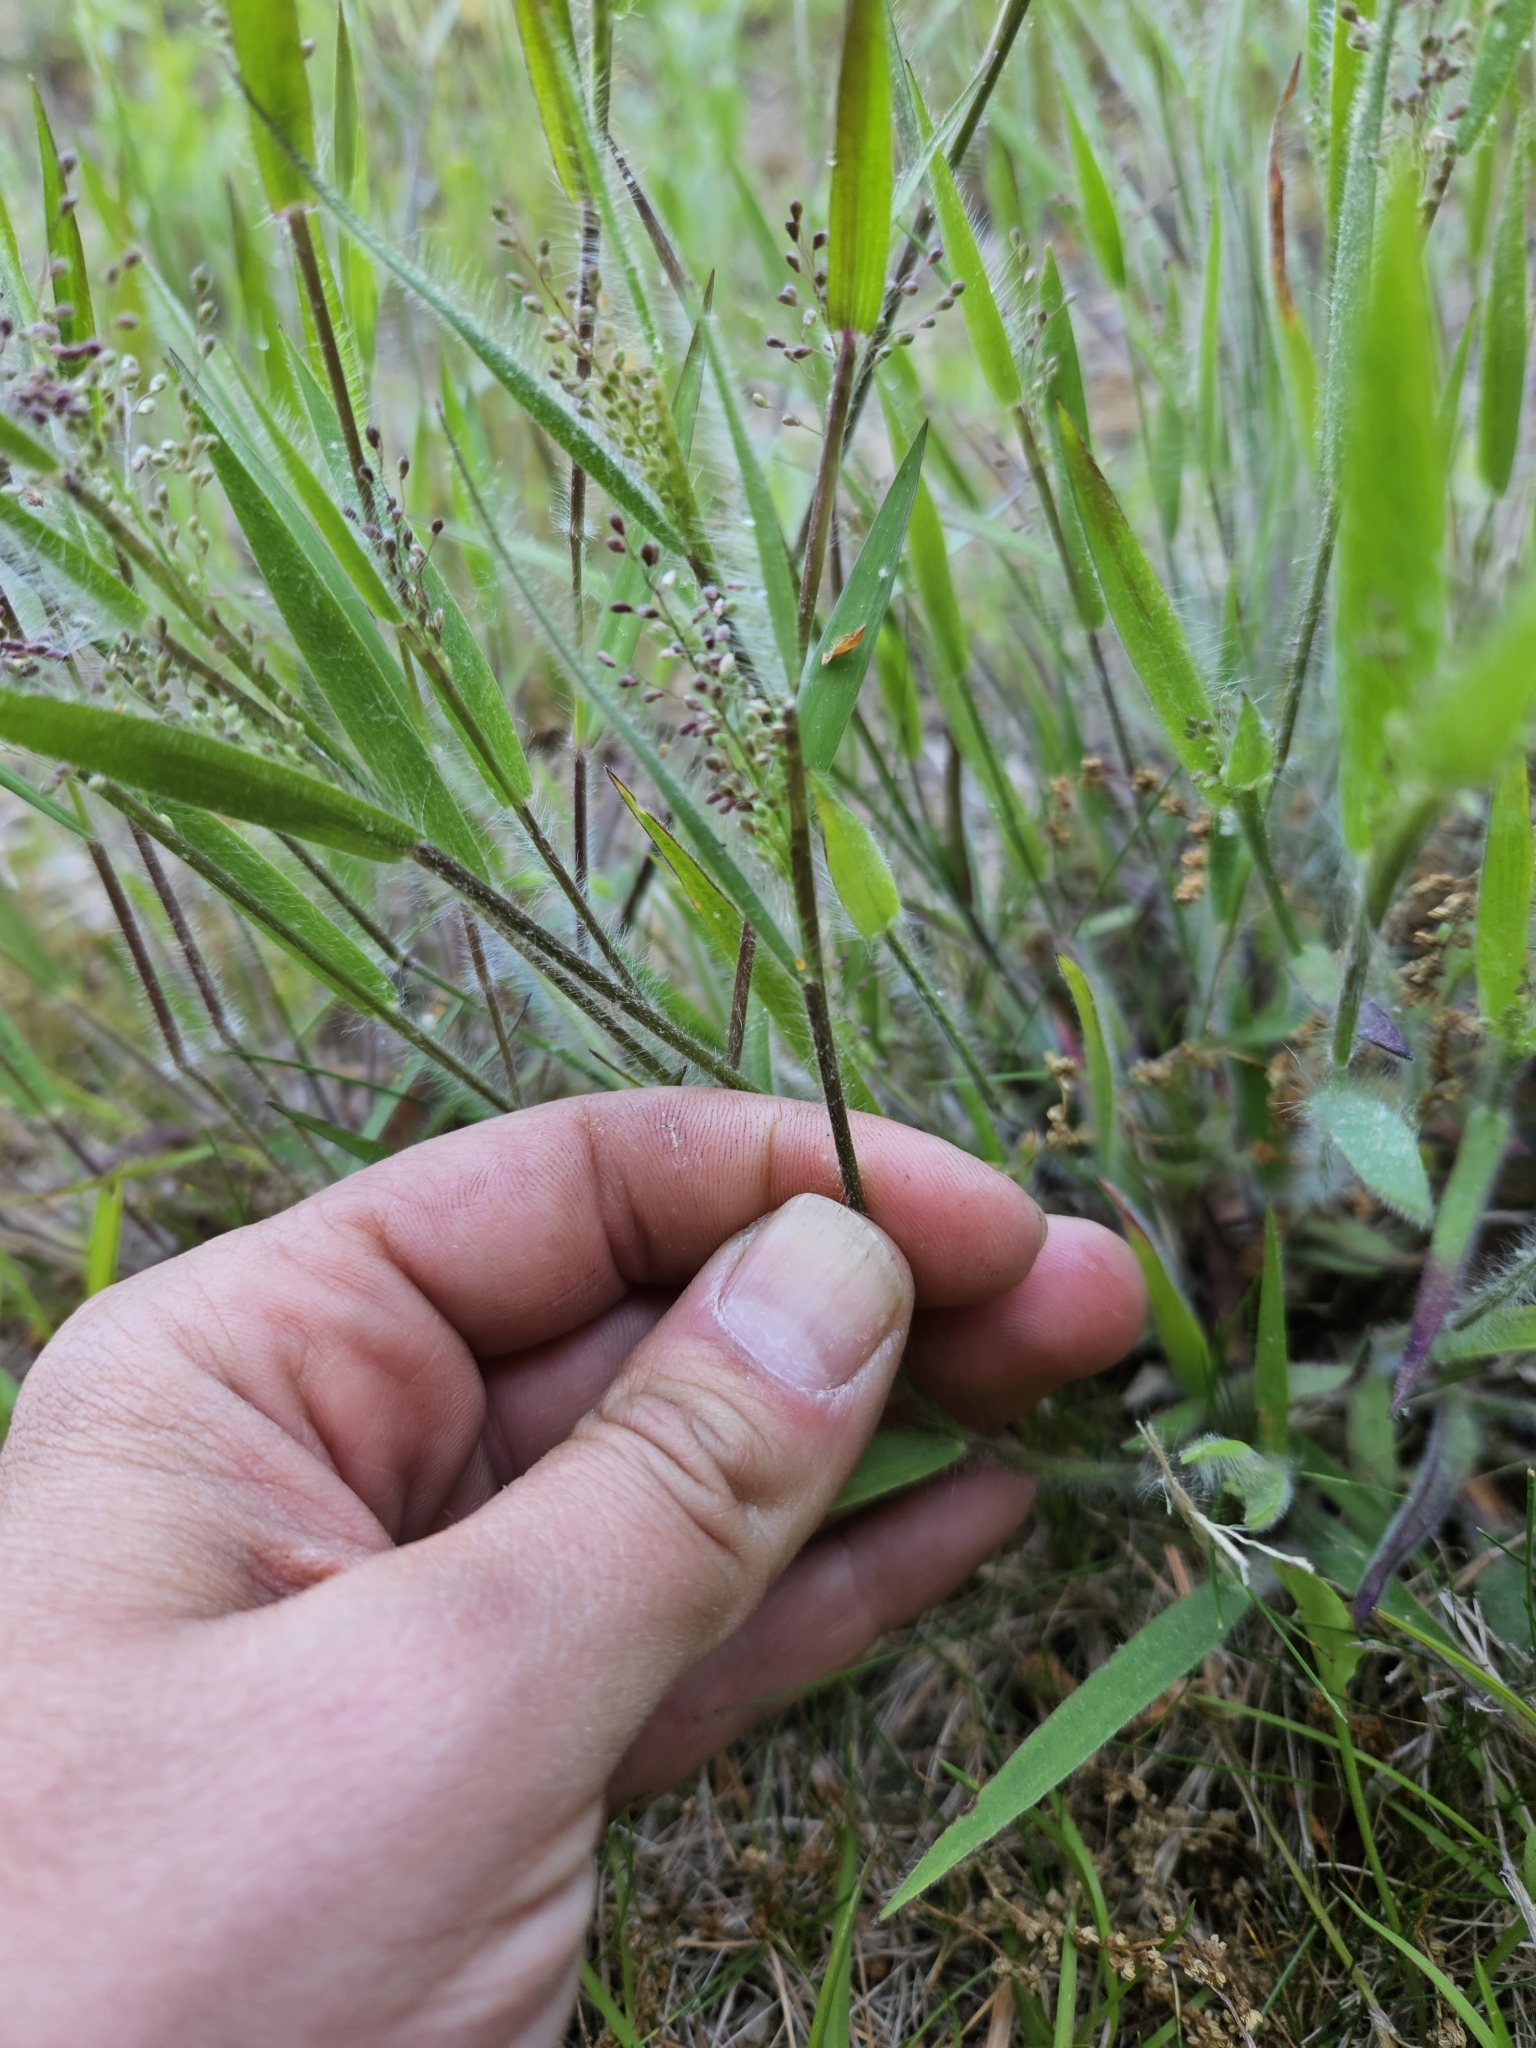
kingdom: Plantae
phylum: Tracheophyta
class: Liliopsida
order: Poales
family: Poaceae
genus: Dichanthelium
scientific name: Dichanthelium lanuginosum
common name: Woolly panicgrass
